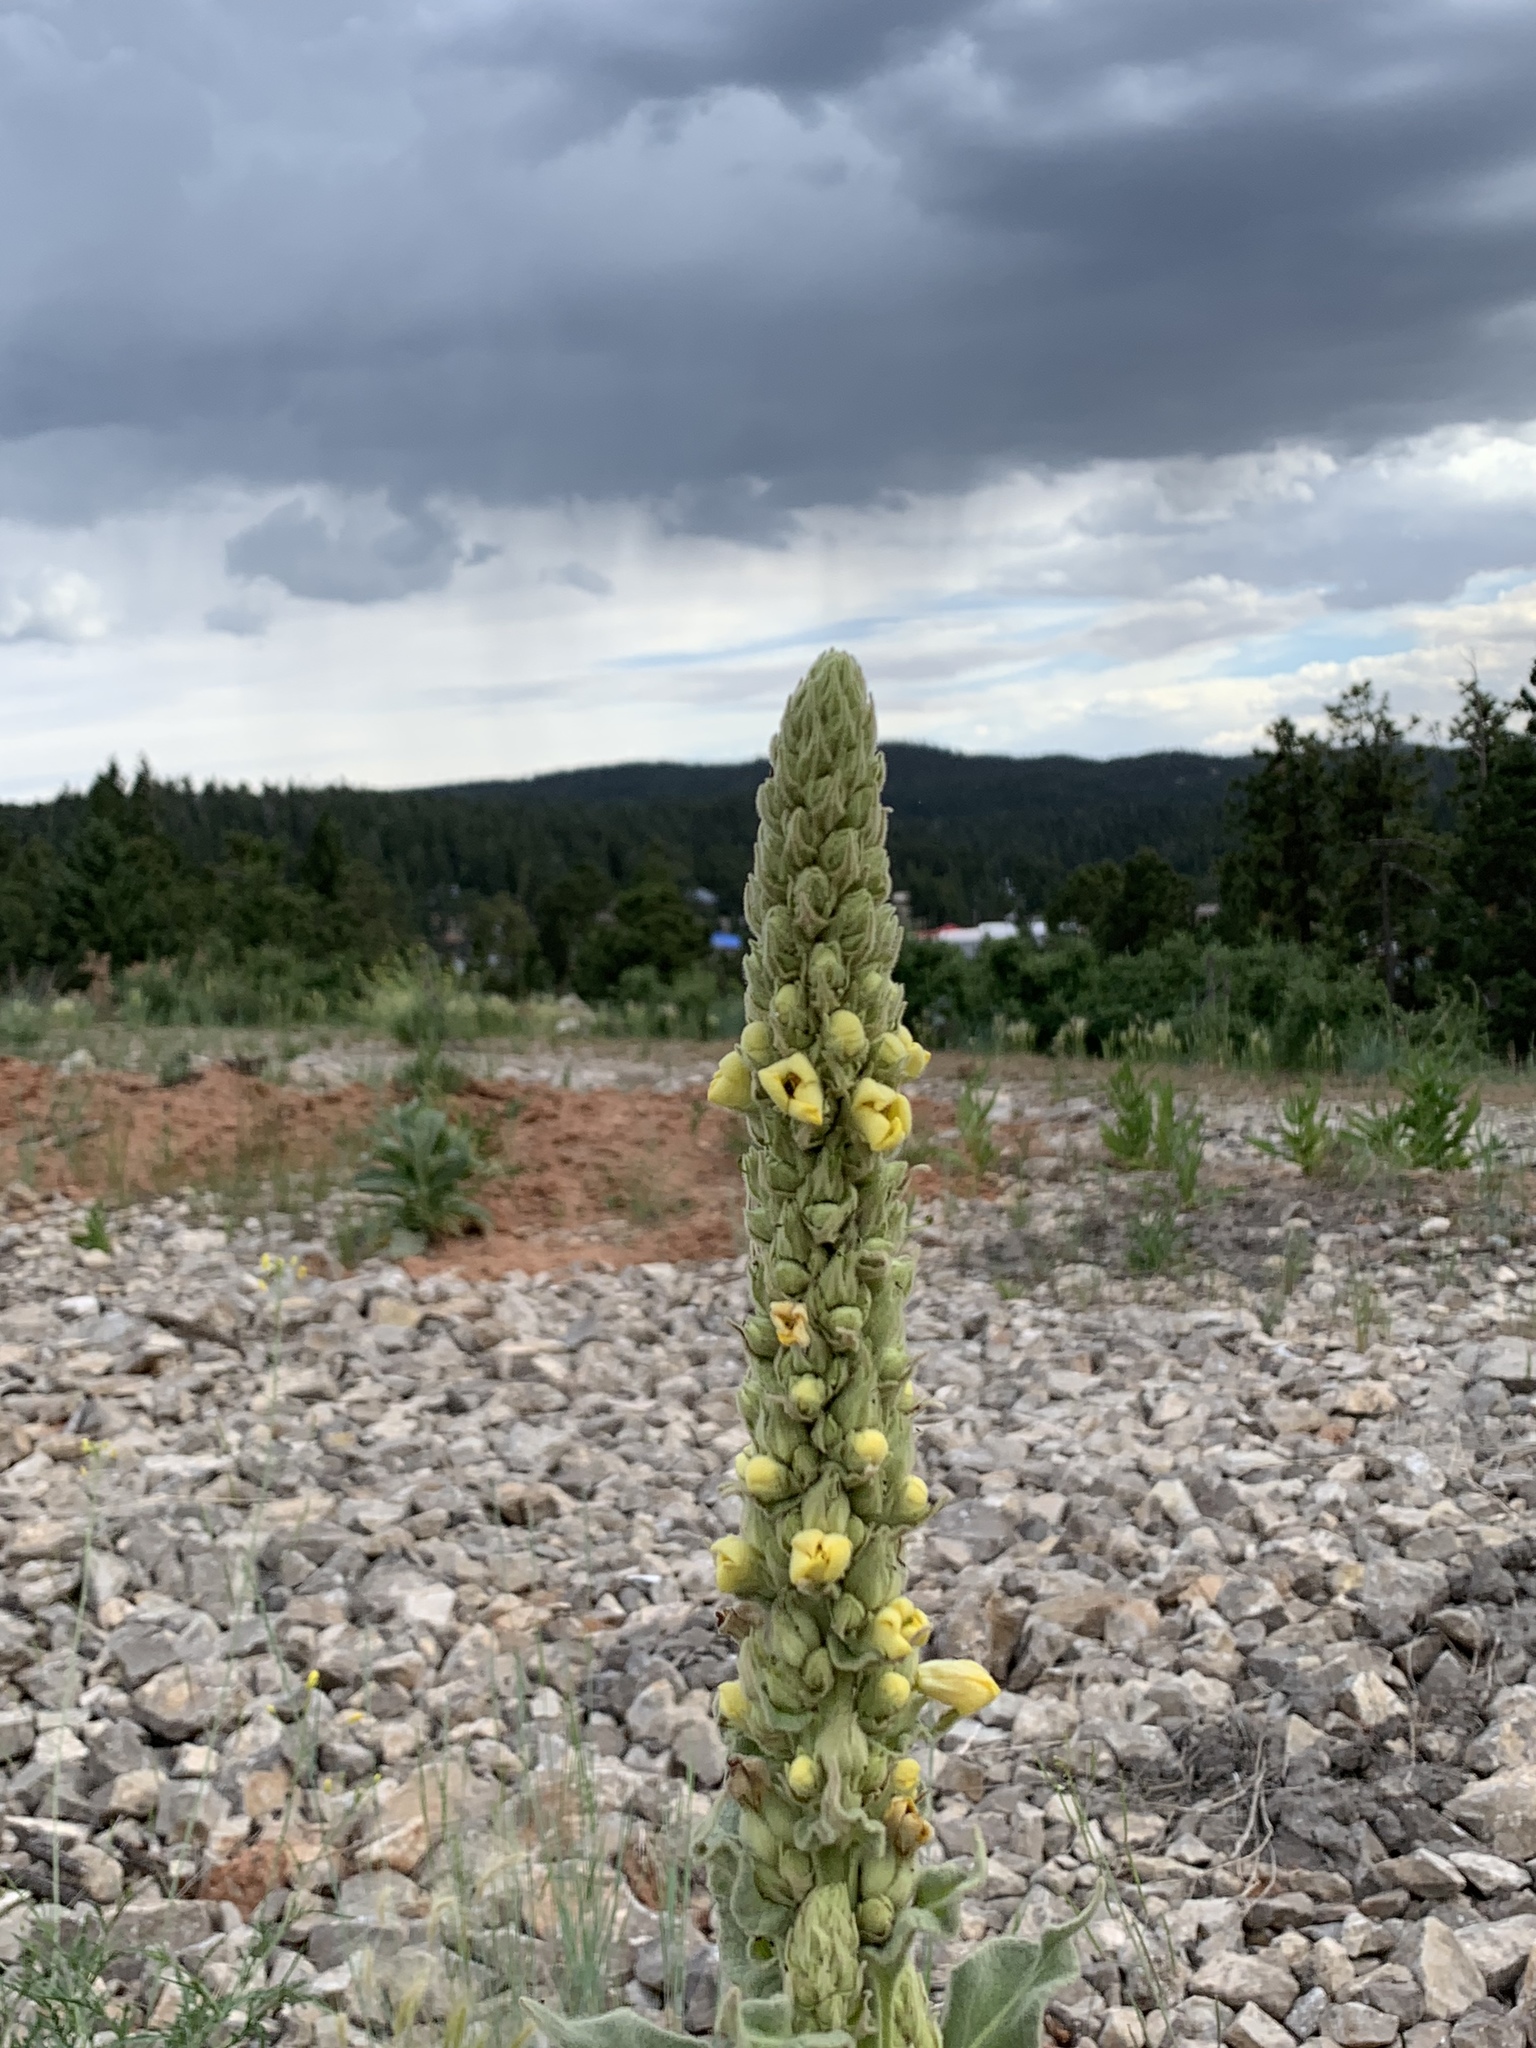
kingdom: Plantae
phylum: Tracheophyta
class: Magnoliopsida
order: Lamiales
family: Scrophulariaceae
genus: Verbascum
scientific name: Verbascum thapsus
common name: Common mullein
